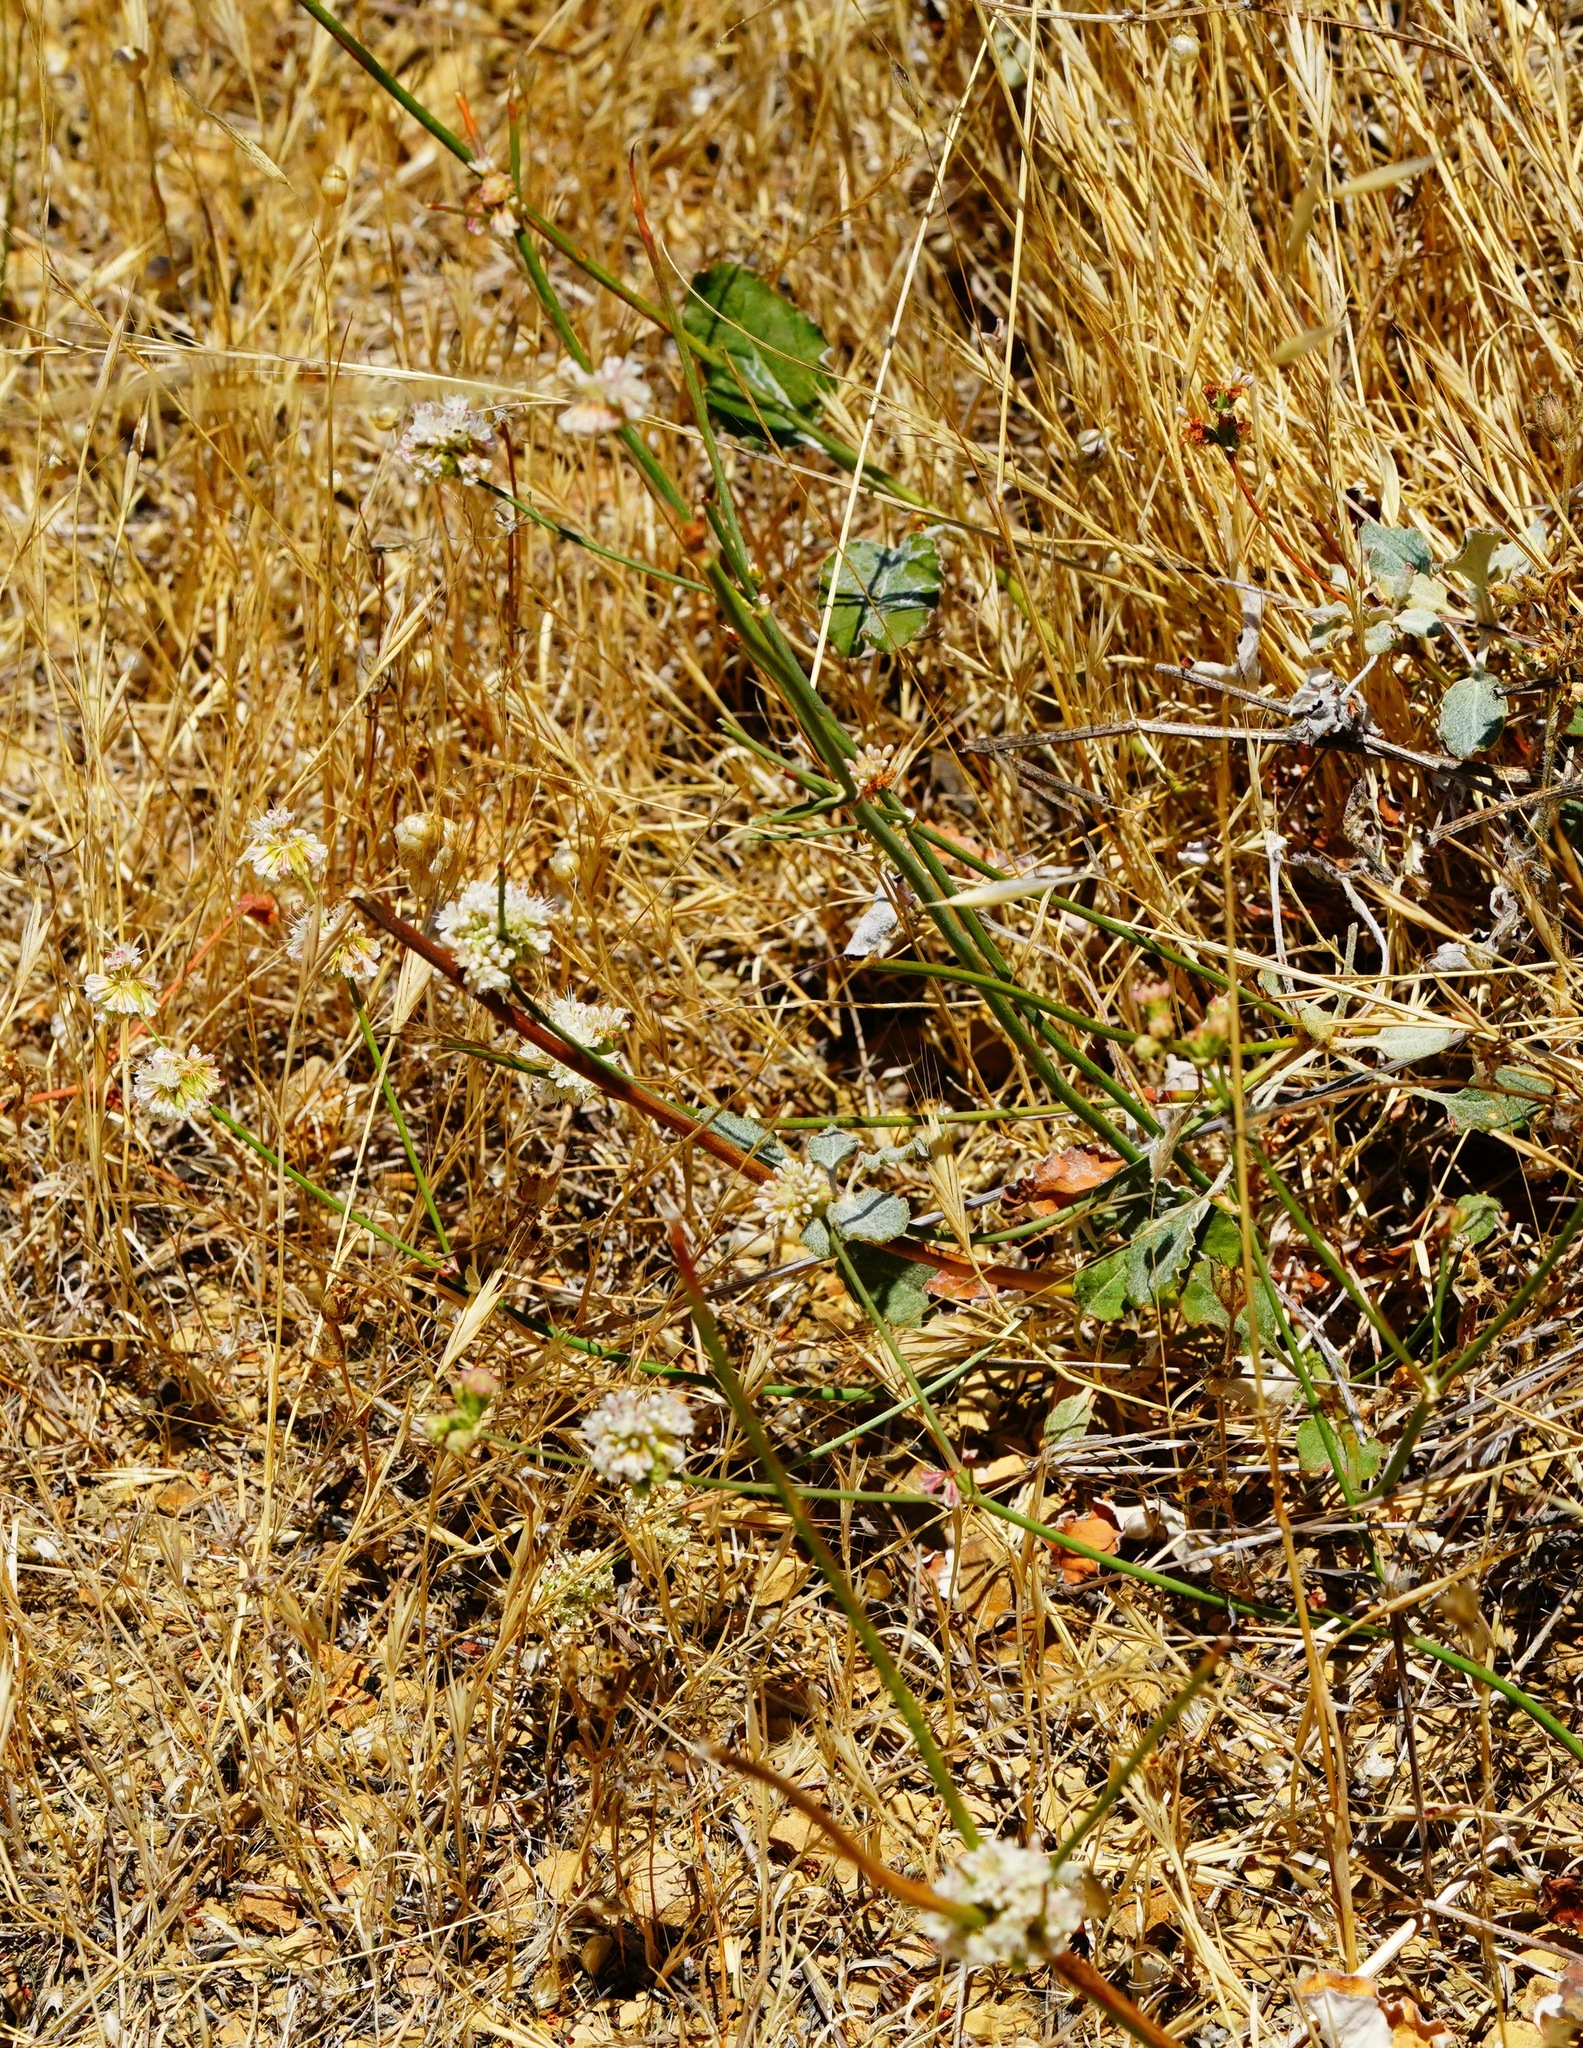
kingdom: Plantae
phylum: Tracheophyta
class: Magnoliopsida
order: Caryophyllales
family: Polygonaceae
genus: Eriogonum
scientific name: Eriogonum nudum
